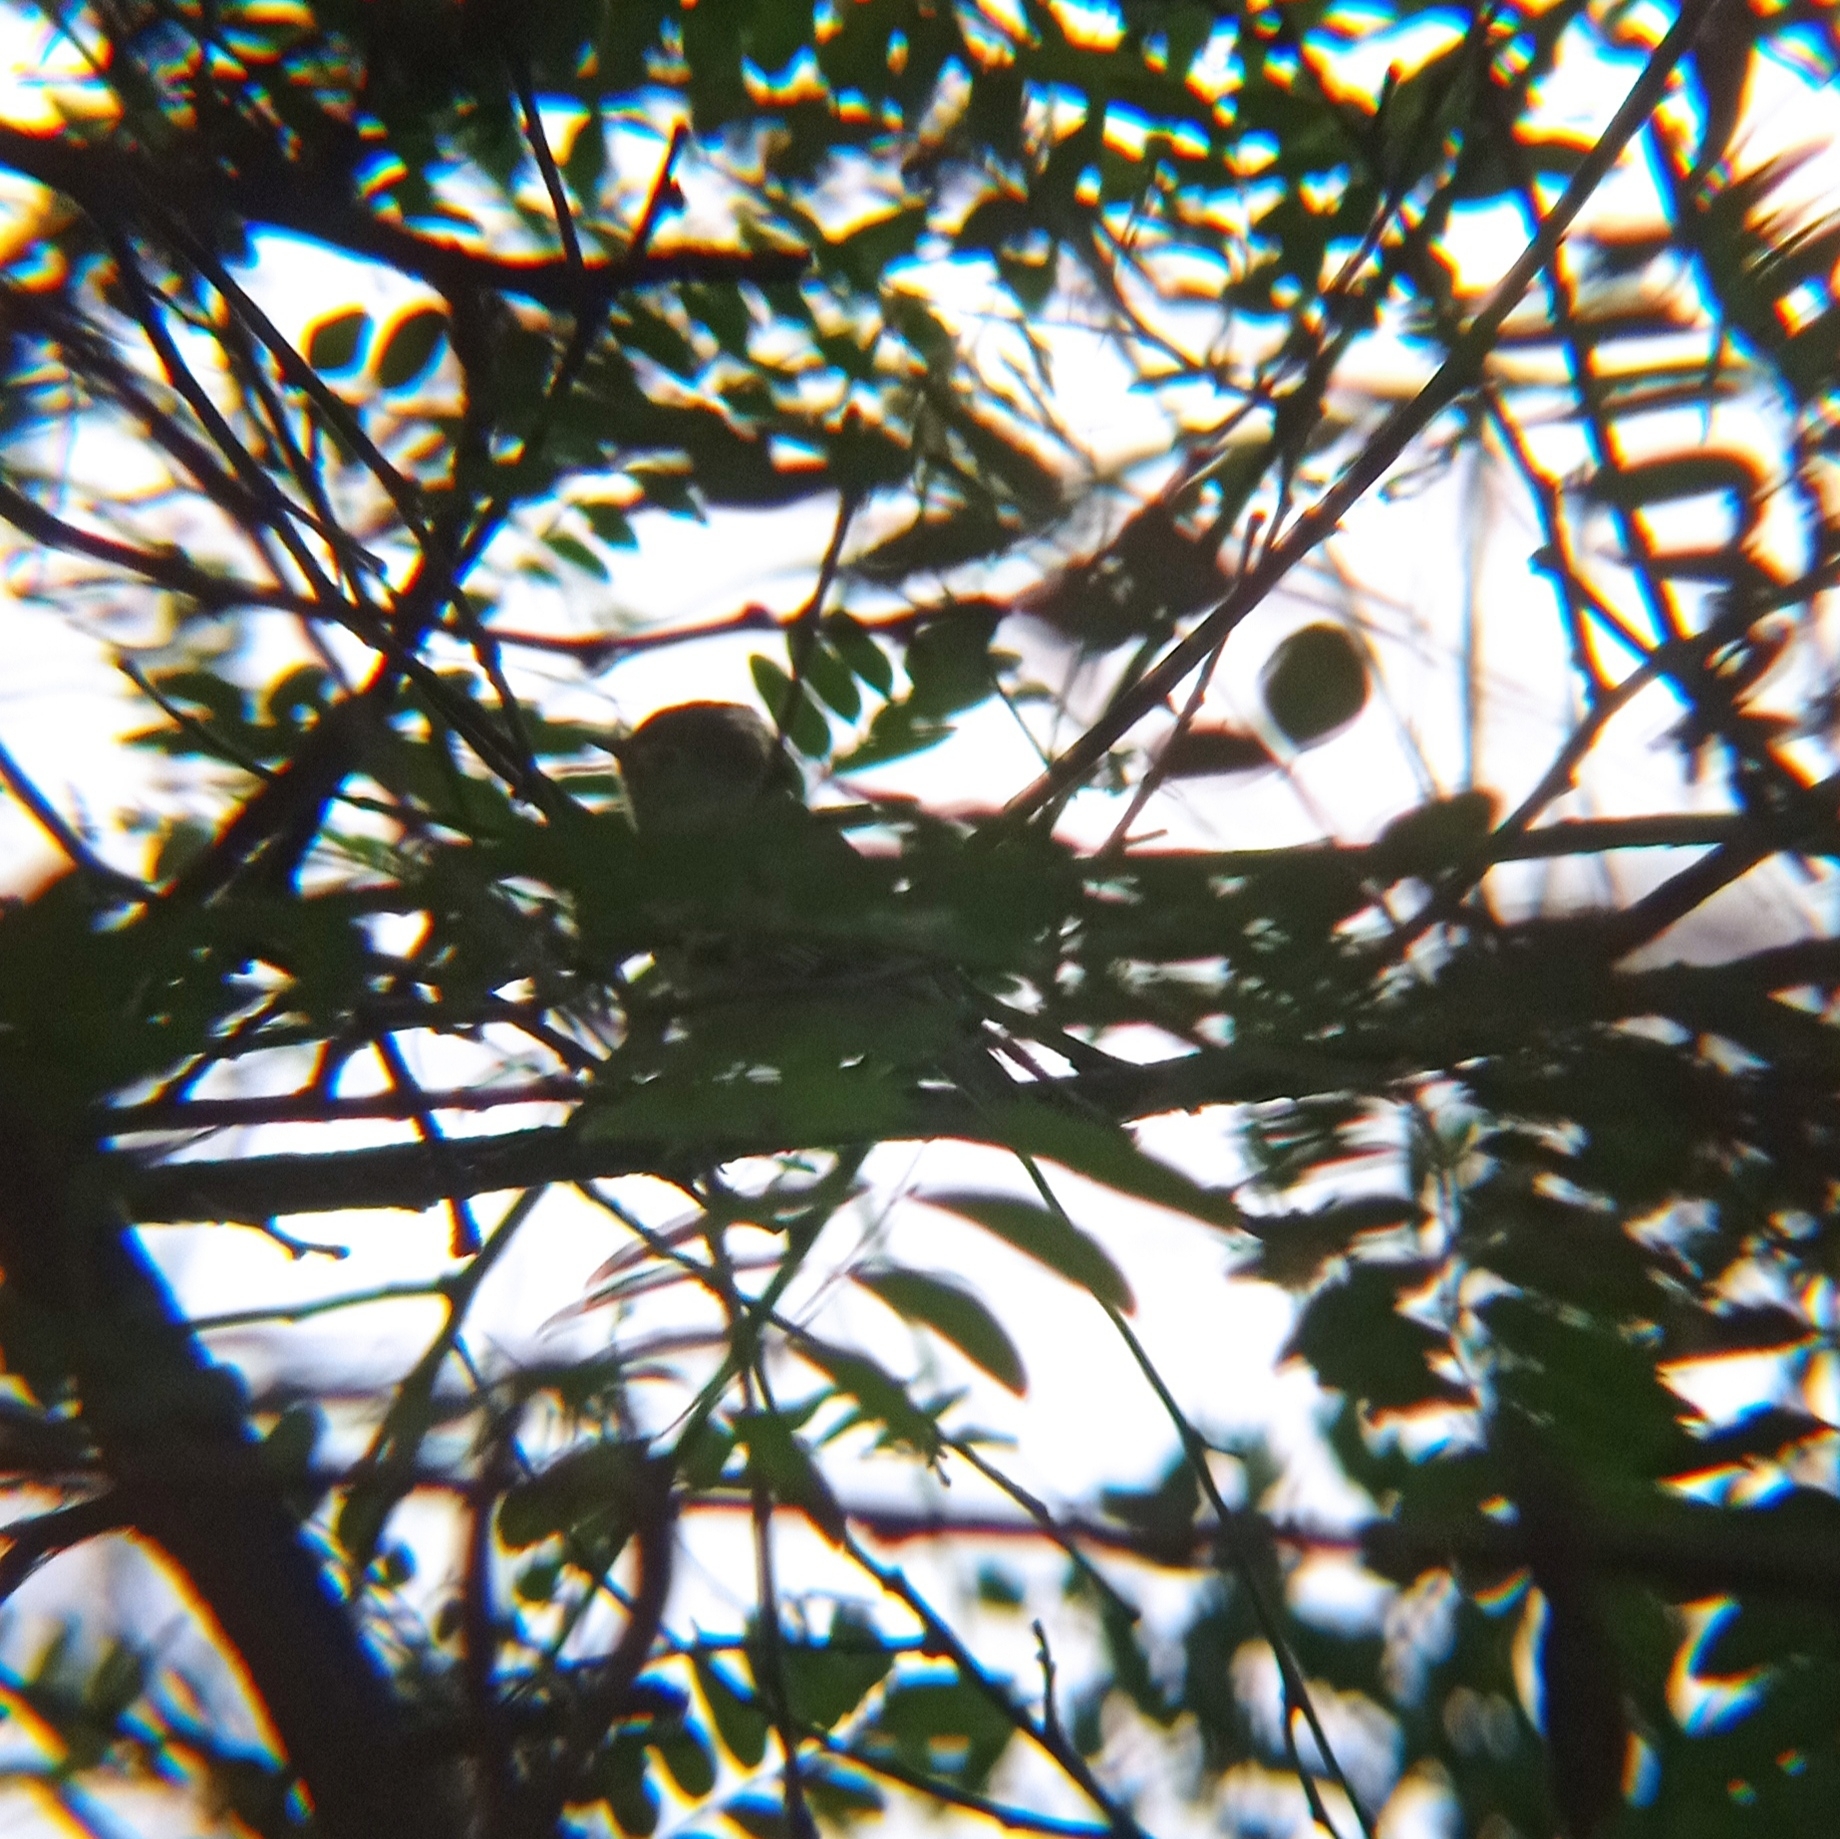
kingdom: Animalia
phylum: Chordata
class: Aves
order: Passeriformes
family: Tyrannidae
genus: Elaenia
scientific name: Elaenia albiceps
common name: White-crested elaenia
